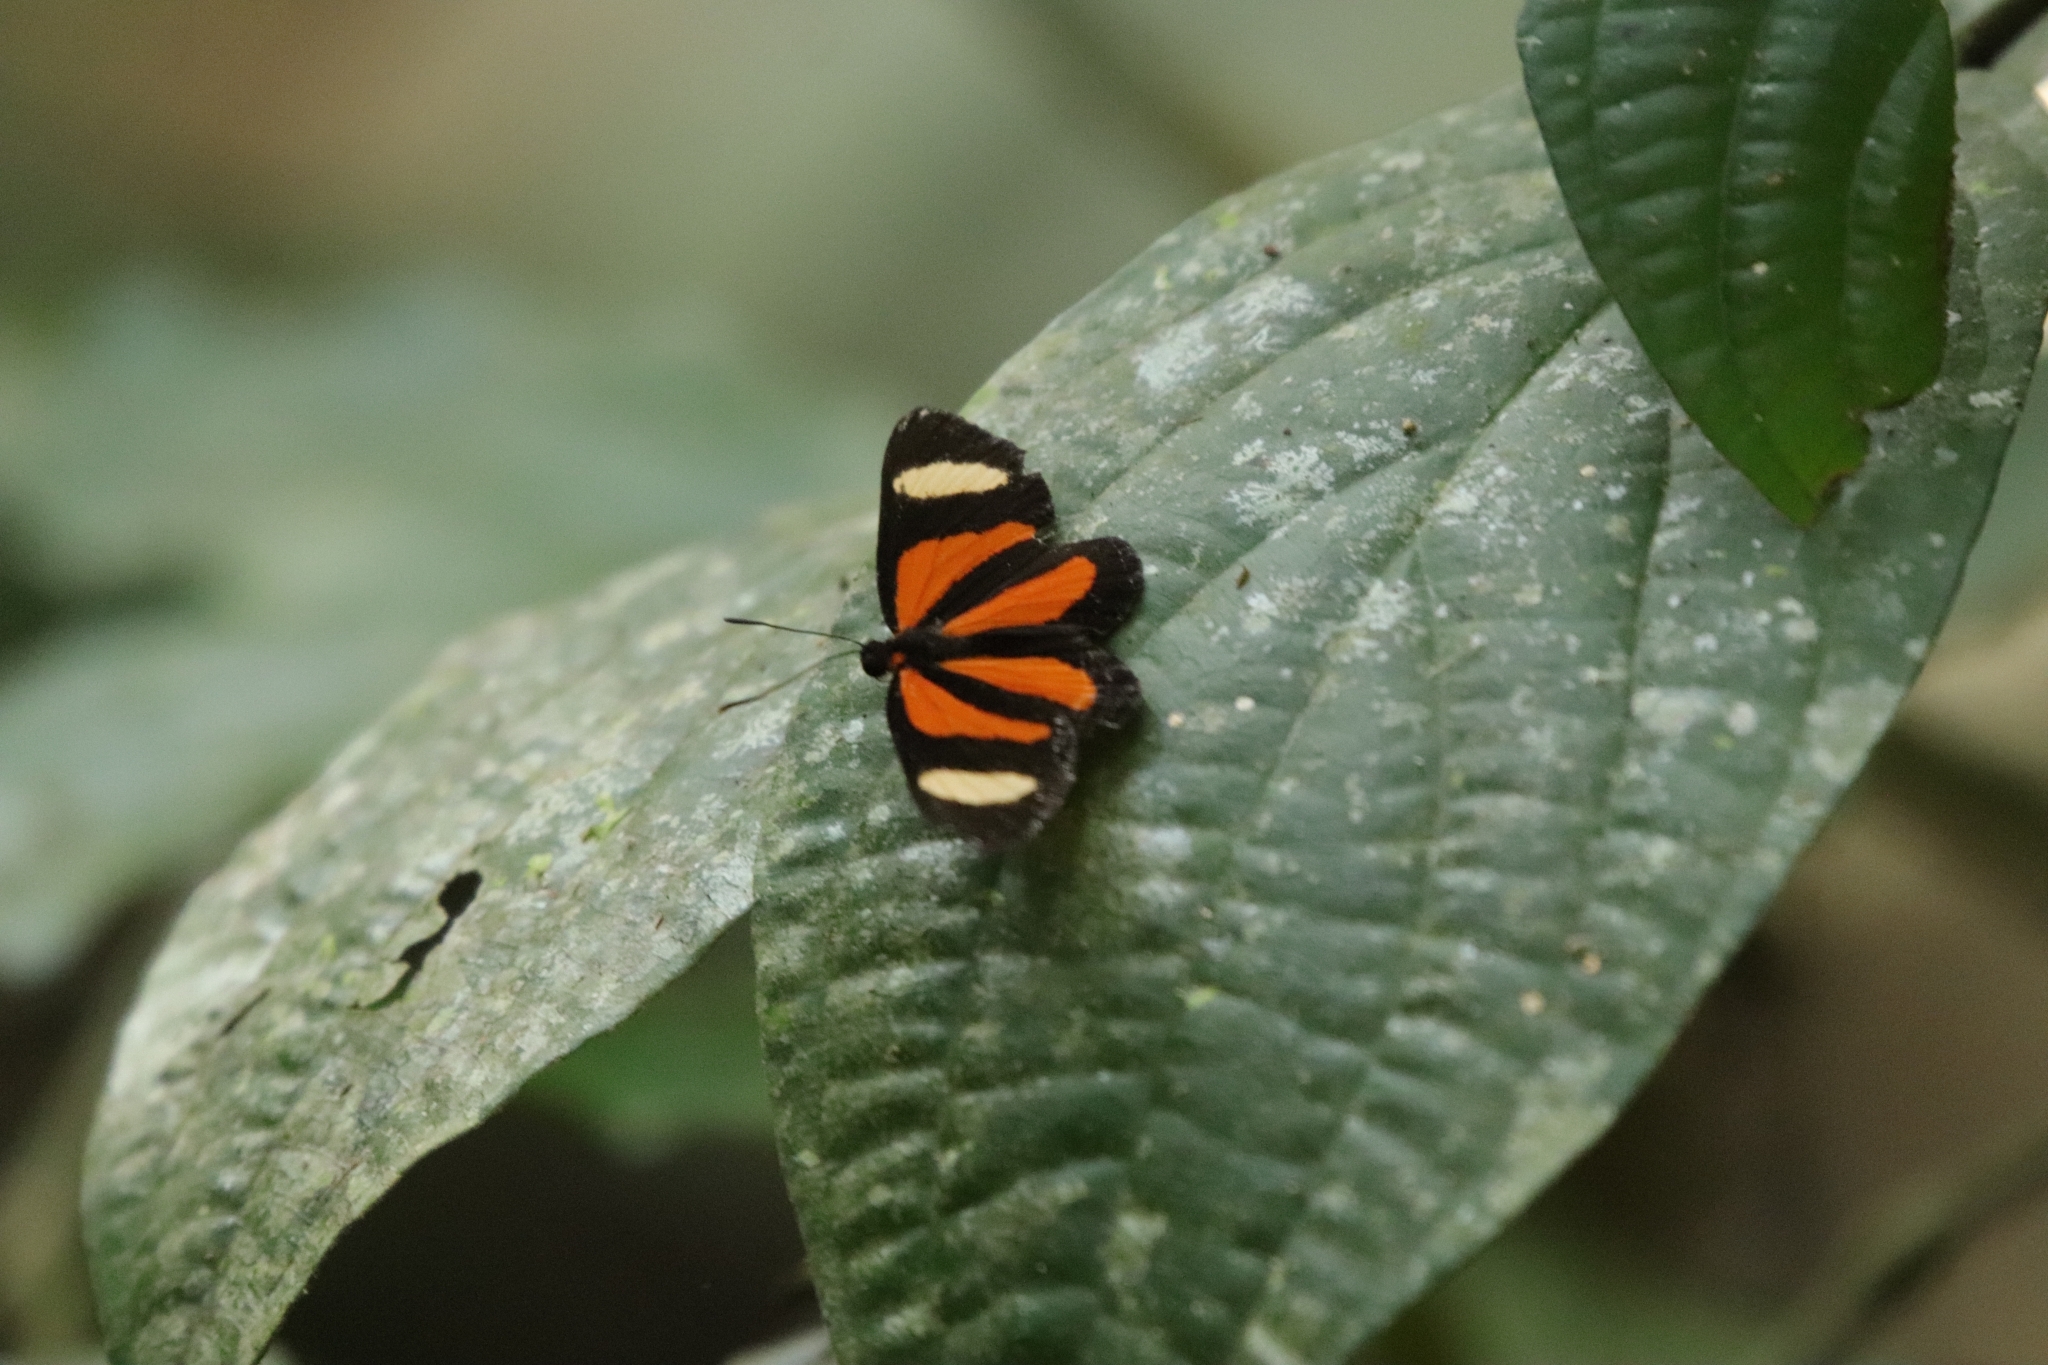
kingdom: Animalia
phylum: Arthropoda
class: Insecta
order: Lepidoptera
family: Riodinidae
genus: Cartea
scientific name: Cartea vitula
